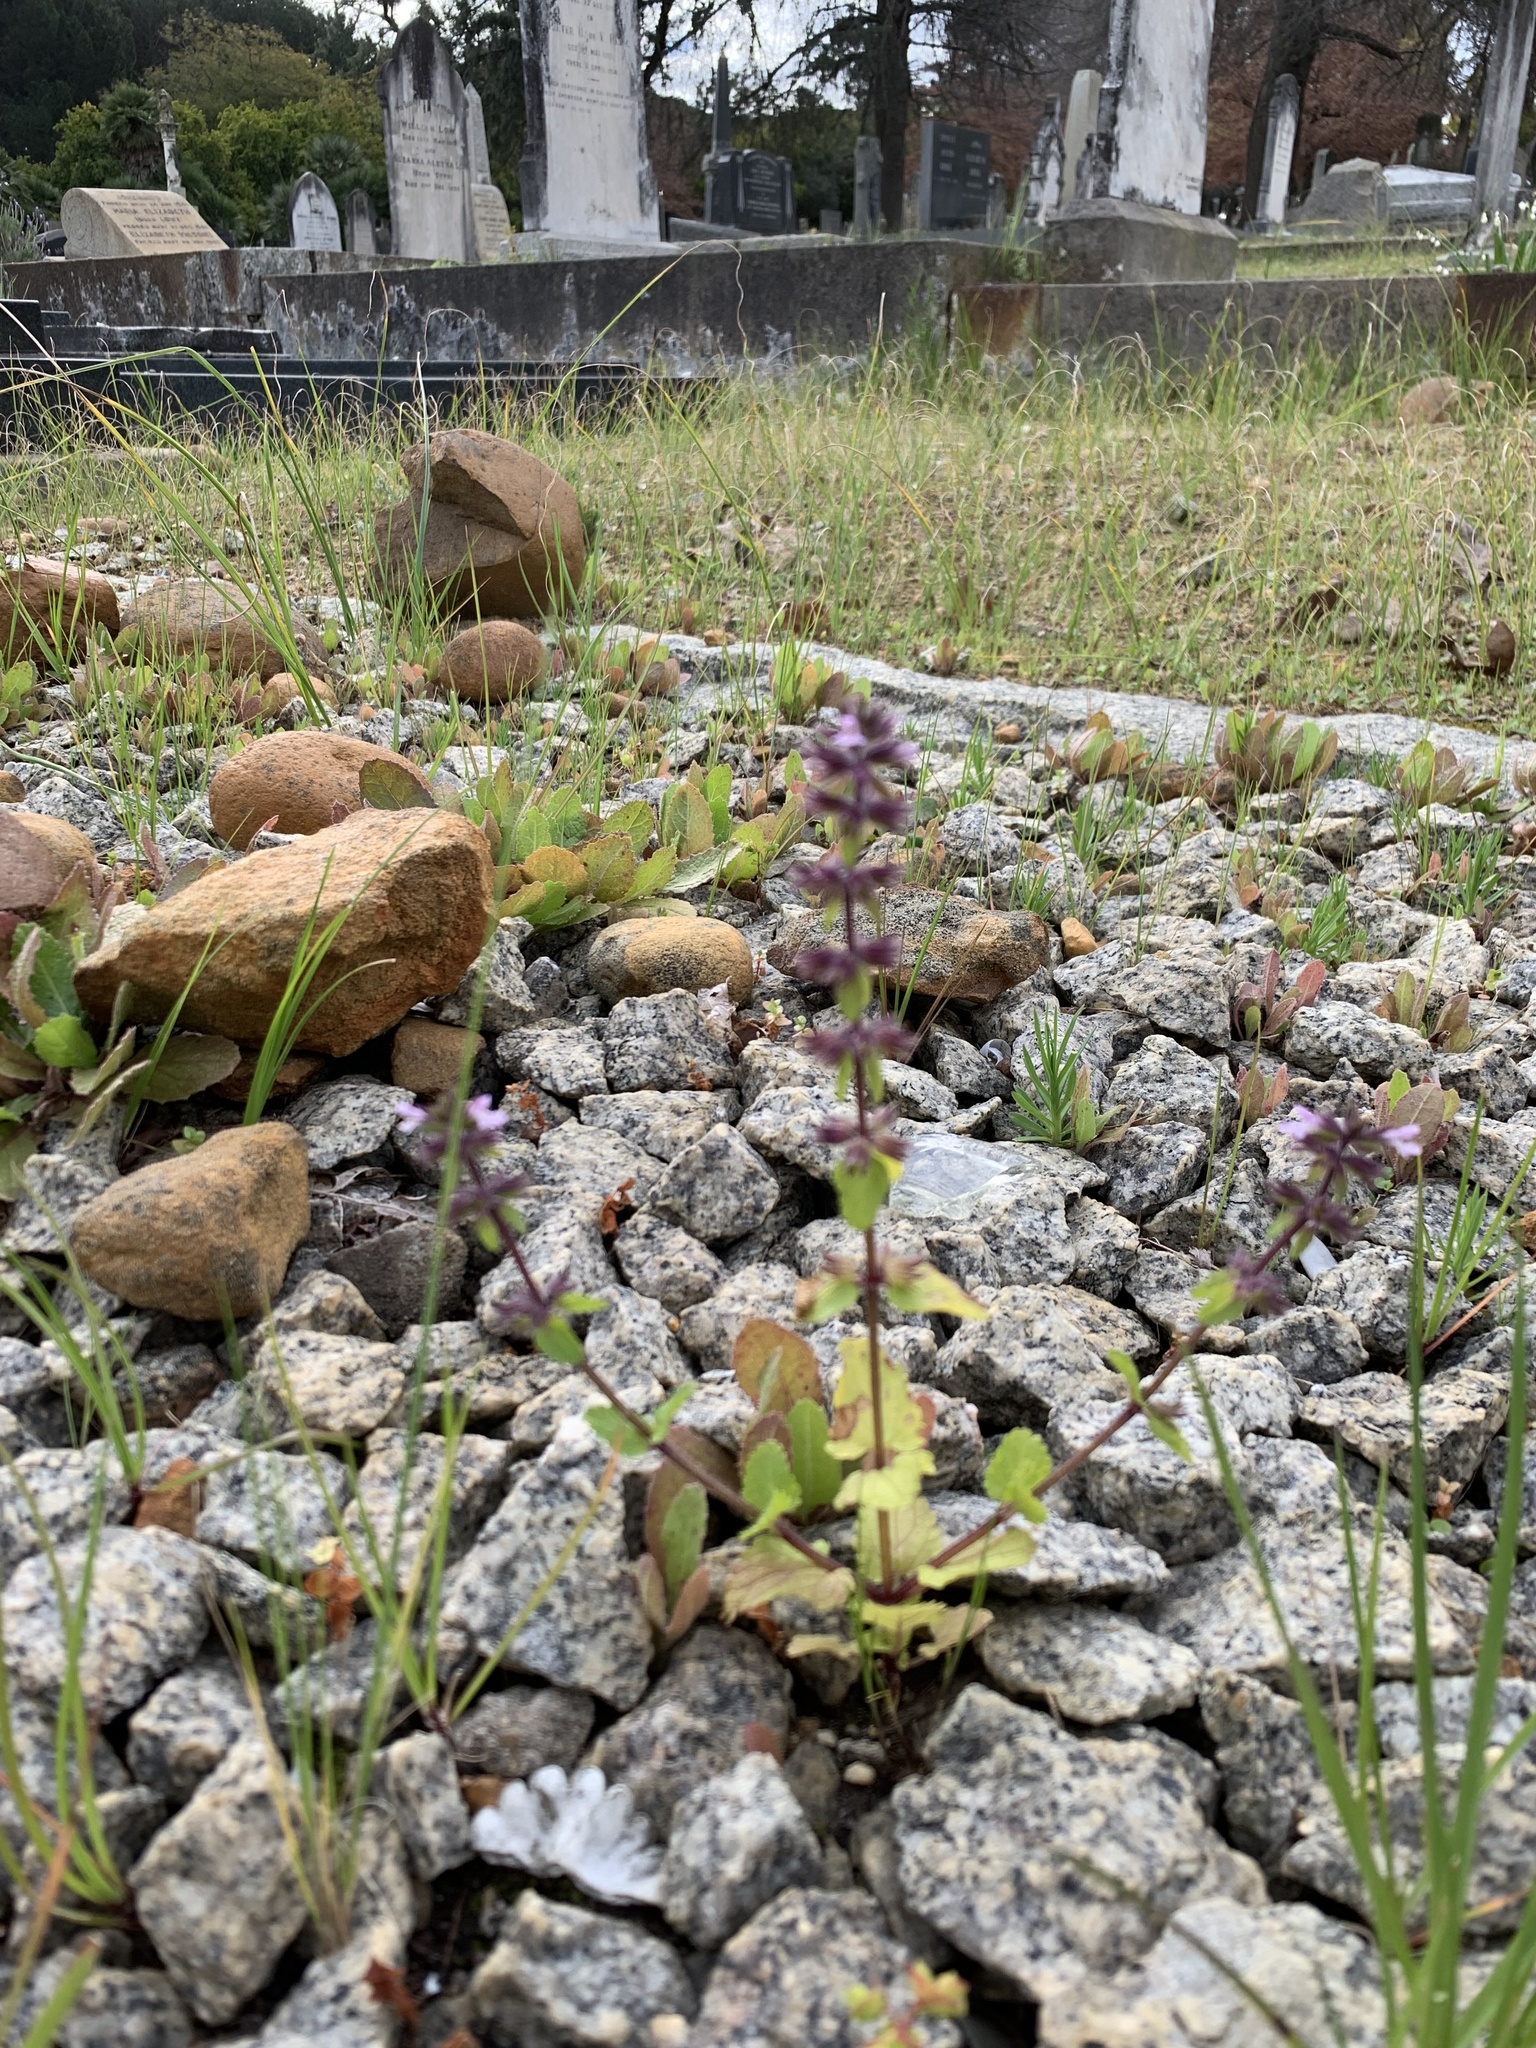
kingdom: Plantae
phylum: Tracheophyta
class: Magnoliopsida
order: Lamiales
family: Lamiaceae
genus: Stachys
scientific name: Stachys arvensis
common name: Field woundwort
